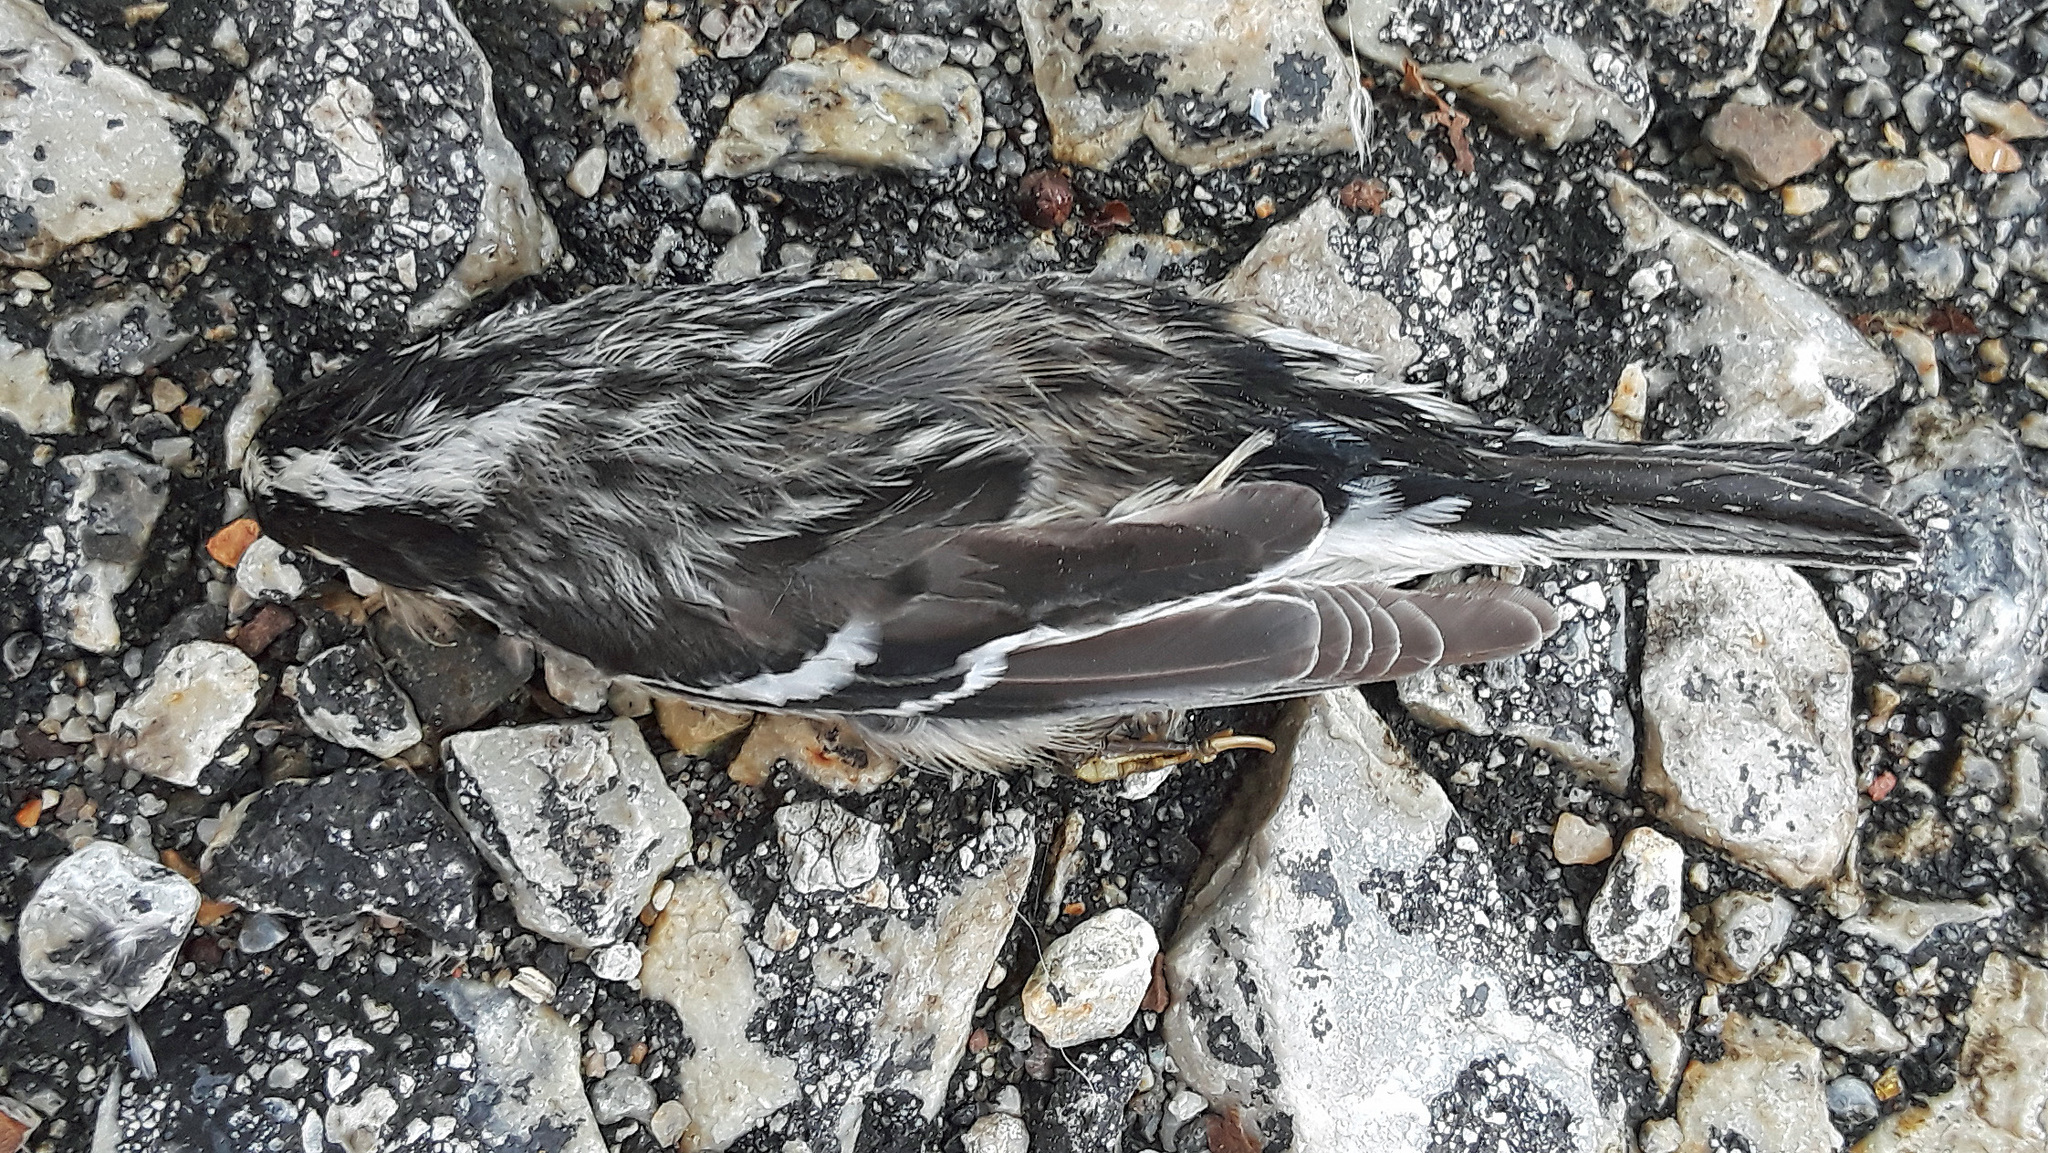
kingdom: Animalia
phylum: Chordata
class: Aves
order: Passeriformes
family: Parulidae
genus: Mniotilta
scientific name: Mniotilta varia
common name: Black-and-white warbler
